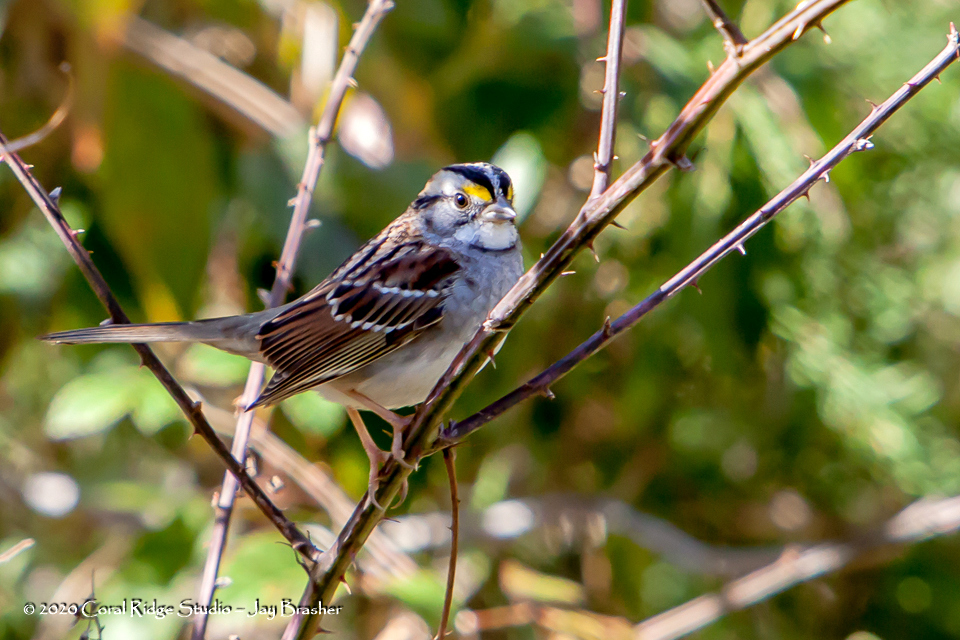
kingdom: Animalia
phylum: Chordata
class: Aves
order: Passeriformes
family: Passerellidae
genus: Zonotrichia
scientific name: Zonotrichia albicollis
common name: White-throated sparrow
